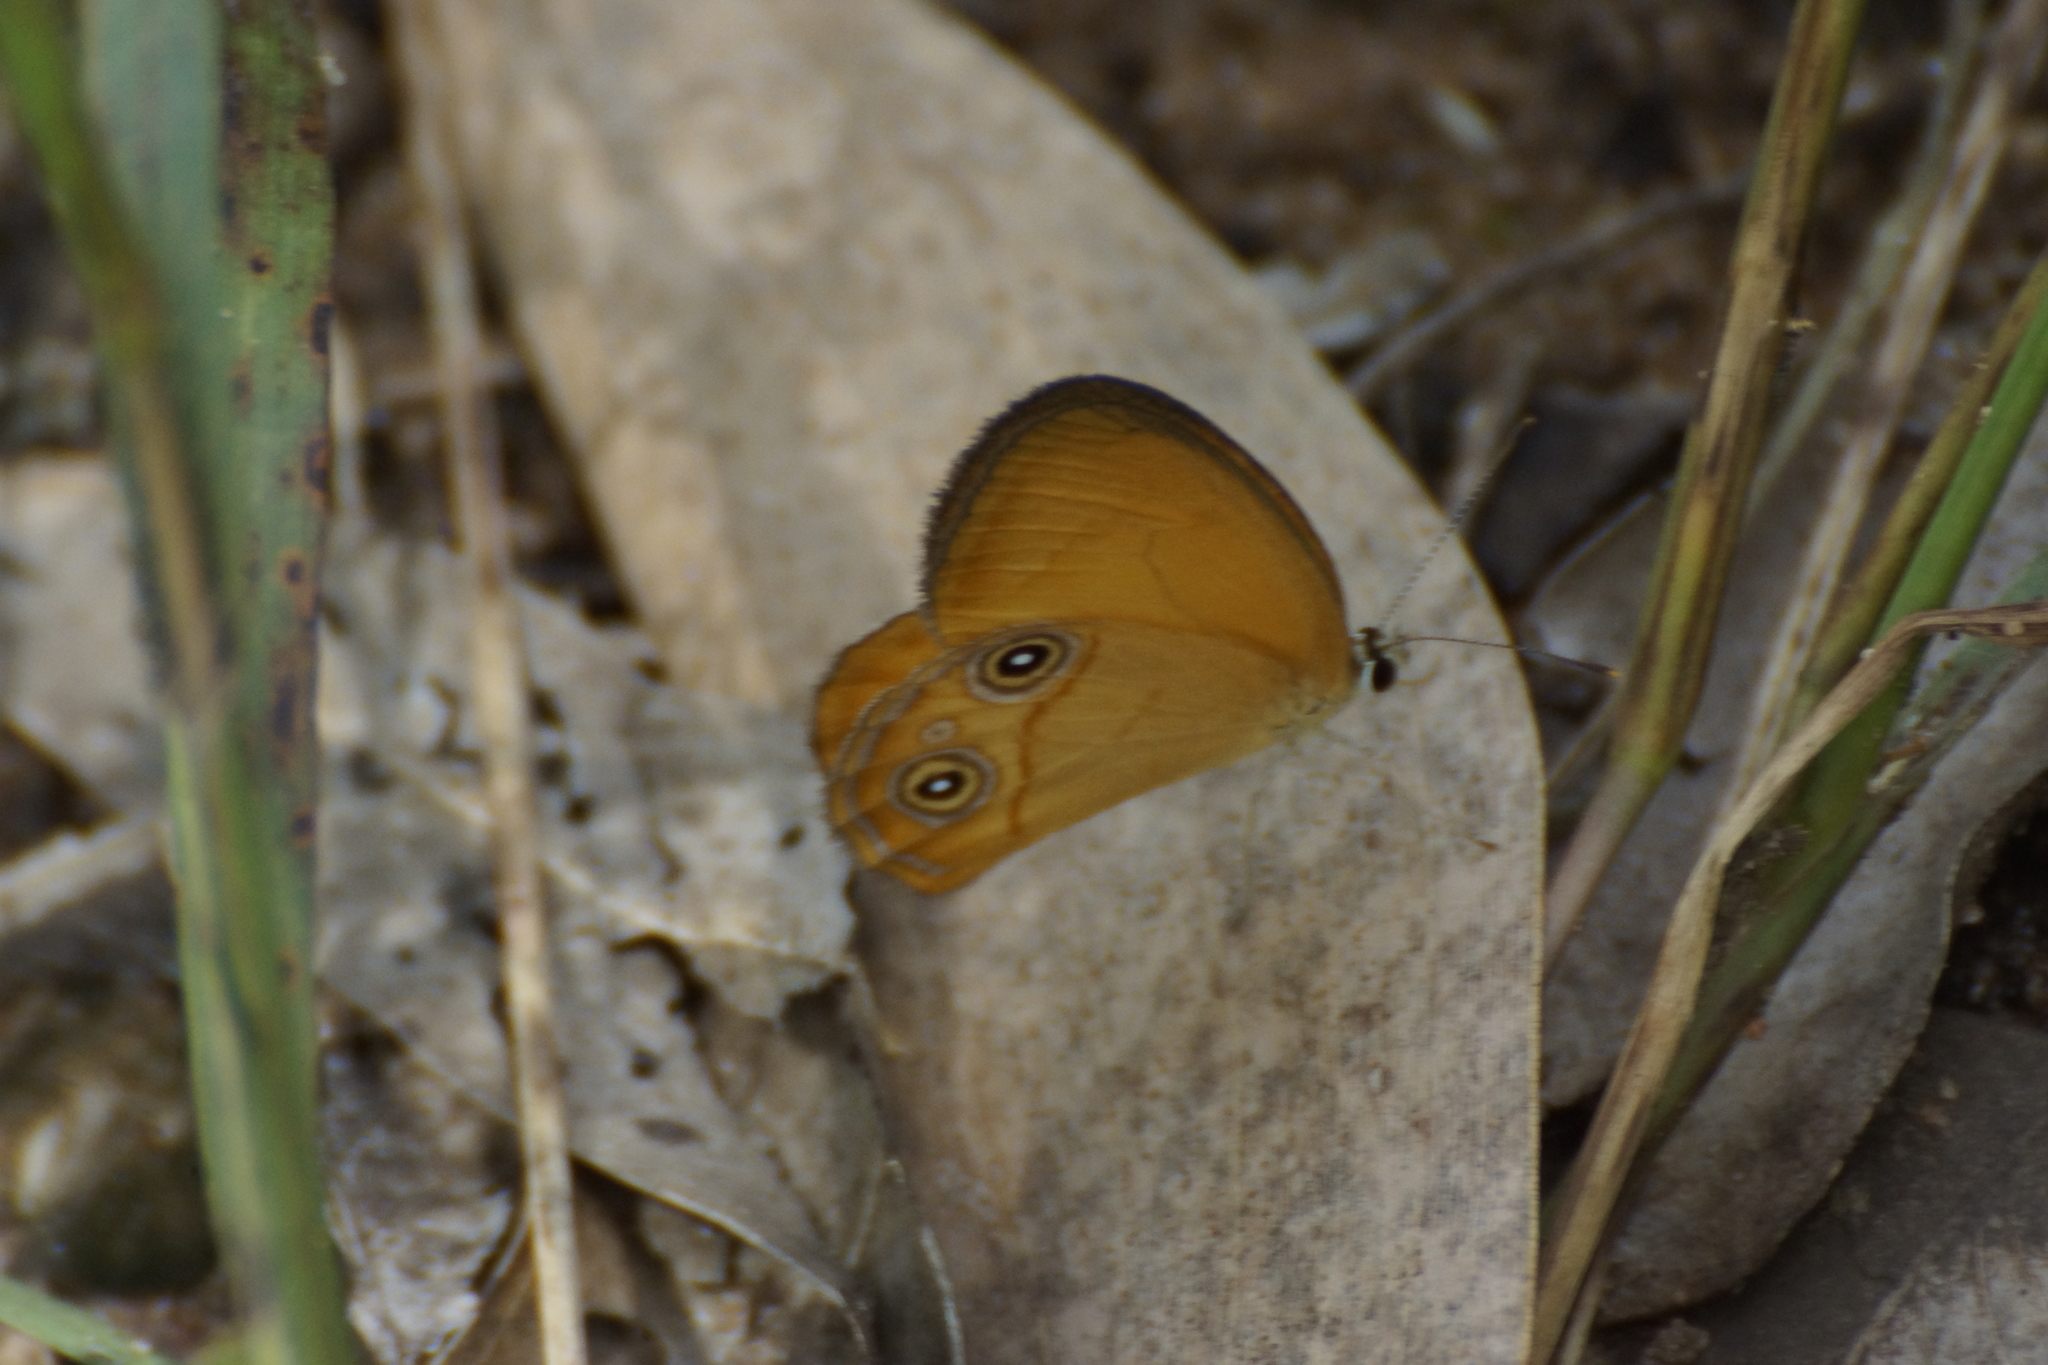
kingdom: Animalia
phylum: Arthropoda
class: Insecta
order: Lepidoptera
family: Nymphalidae
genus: Hypocysta
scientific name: Hypocysta adiante
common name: Orange ringlet
